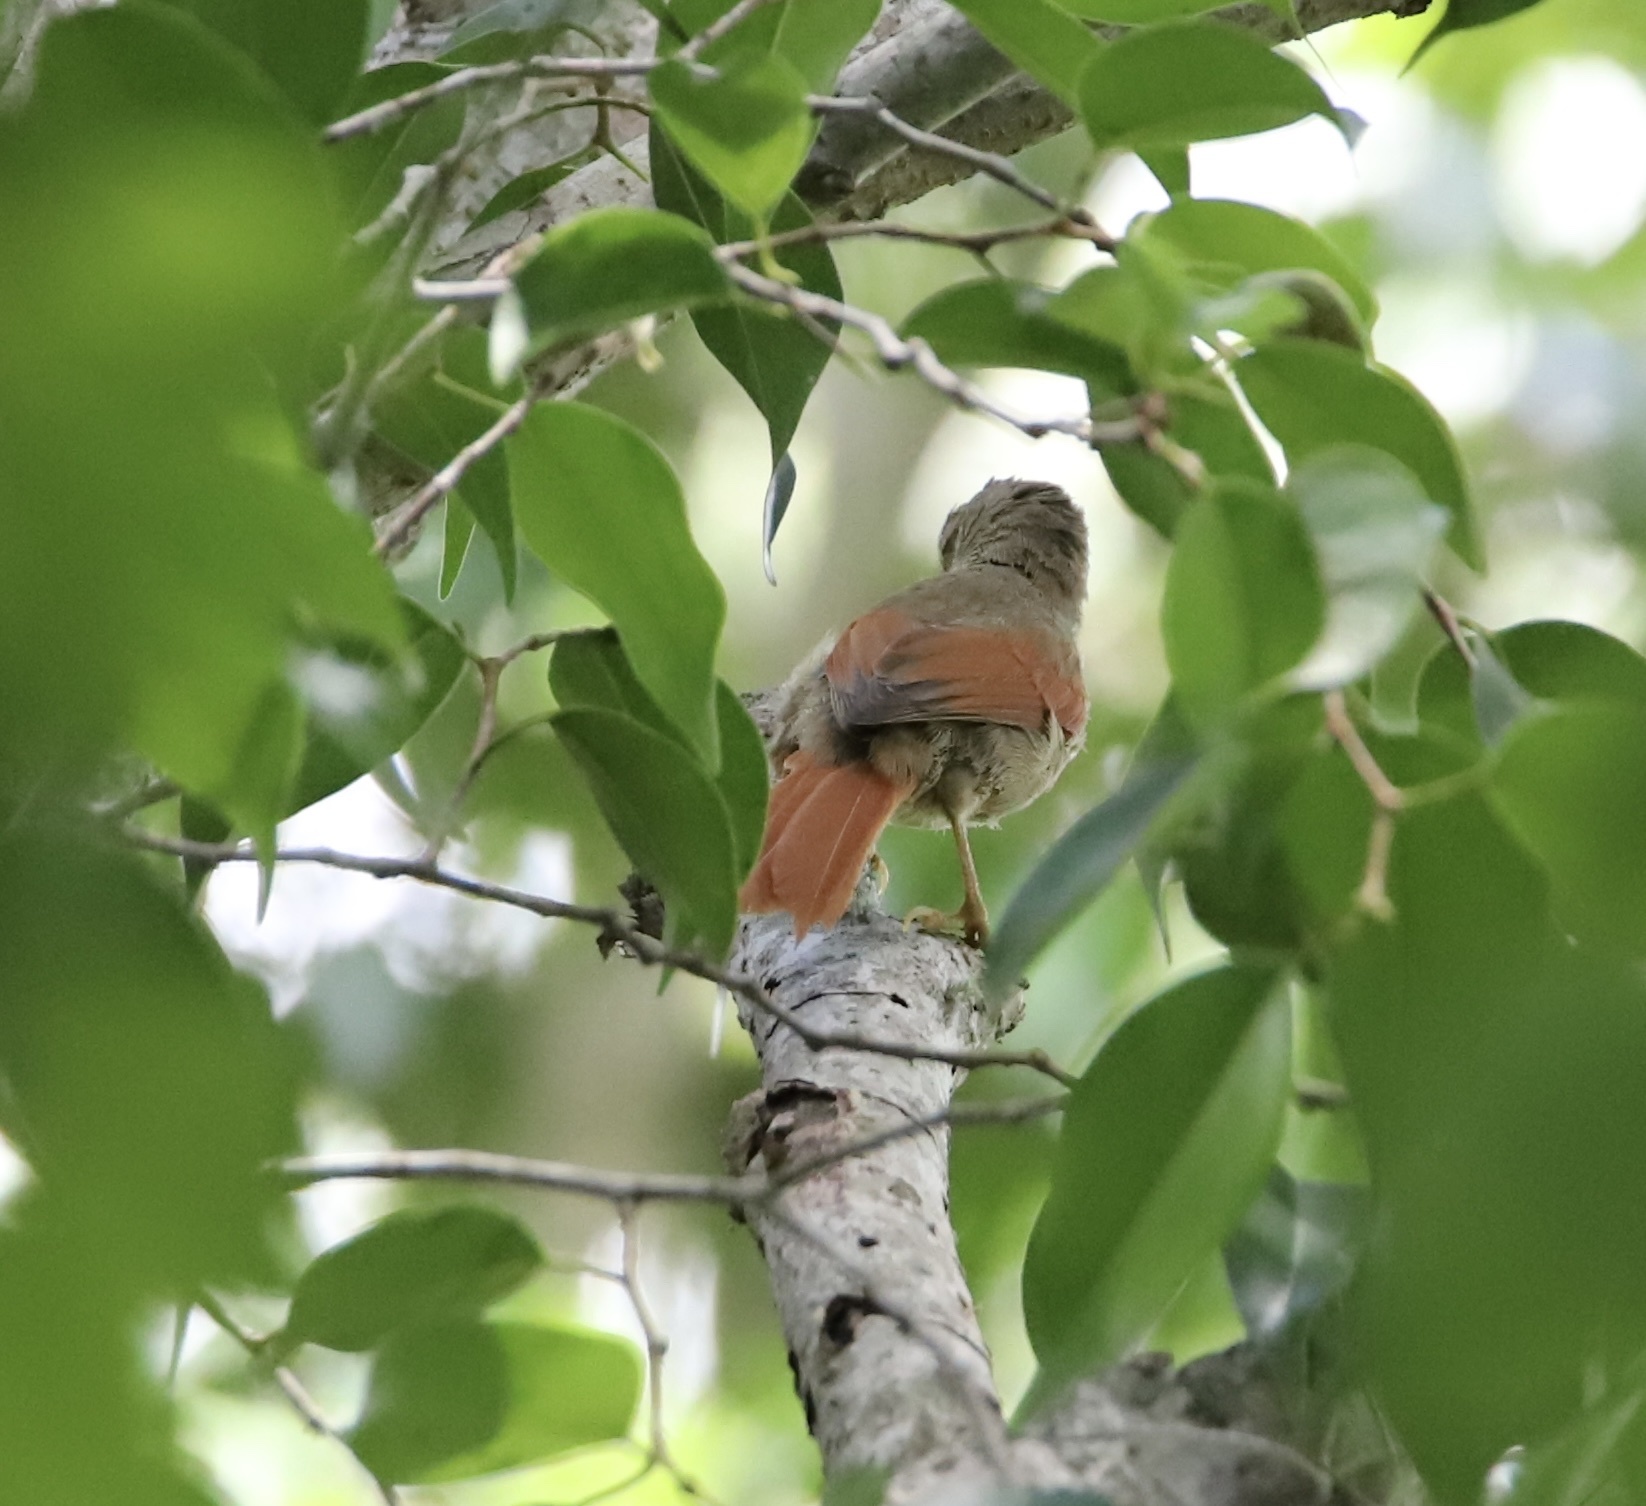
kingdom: Animalia
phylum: Chordata
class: Aves
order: Passeriformes
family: Furnariidae
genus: Cranioleuca
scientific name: Cranioleuca subcristata
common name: Crested spinetail
